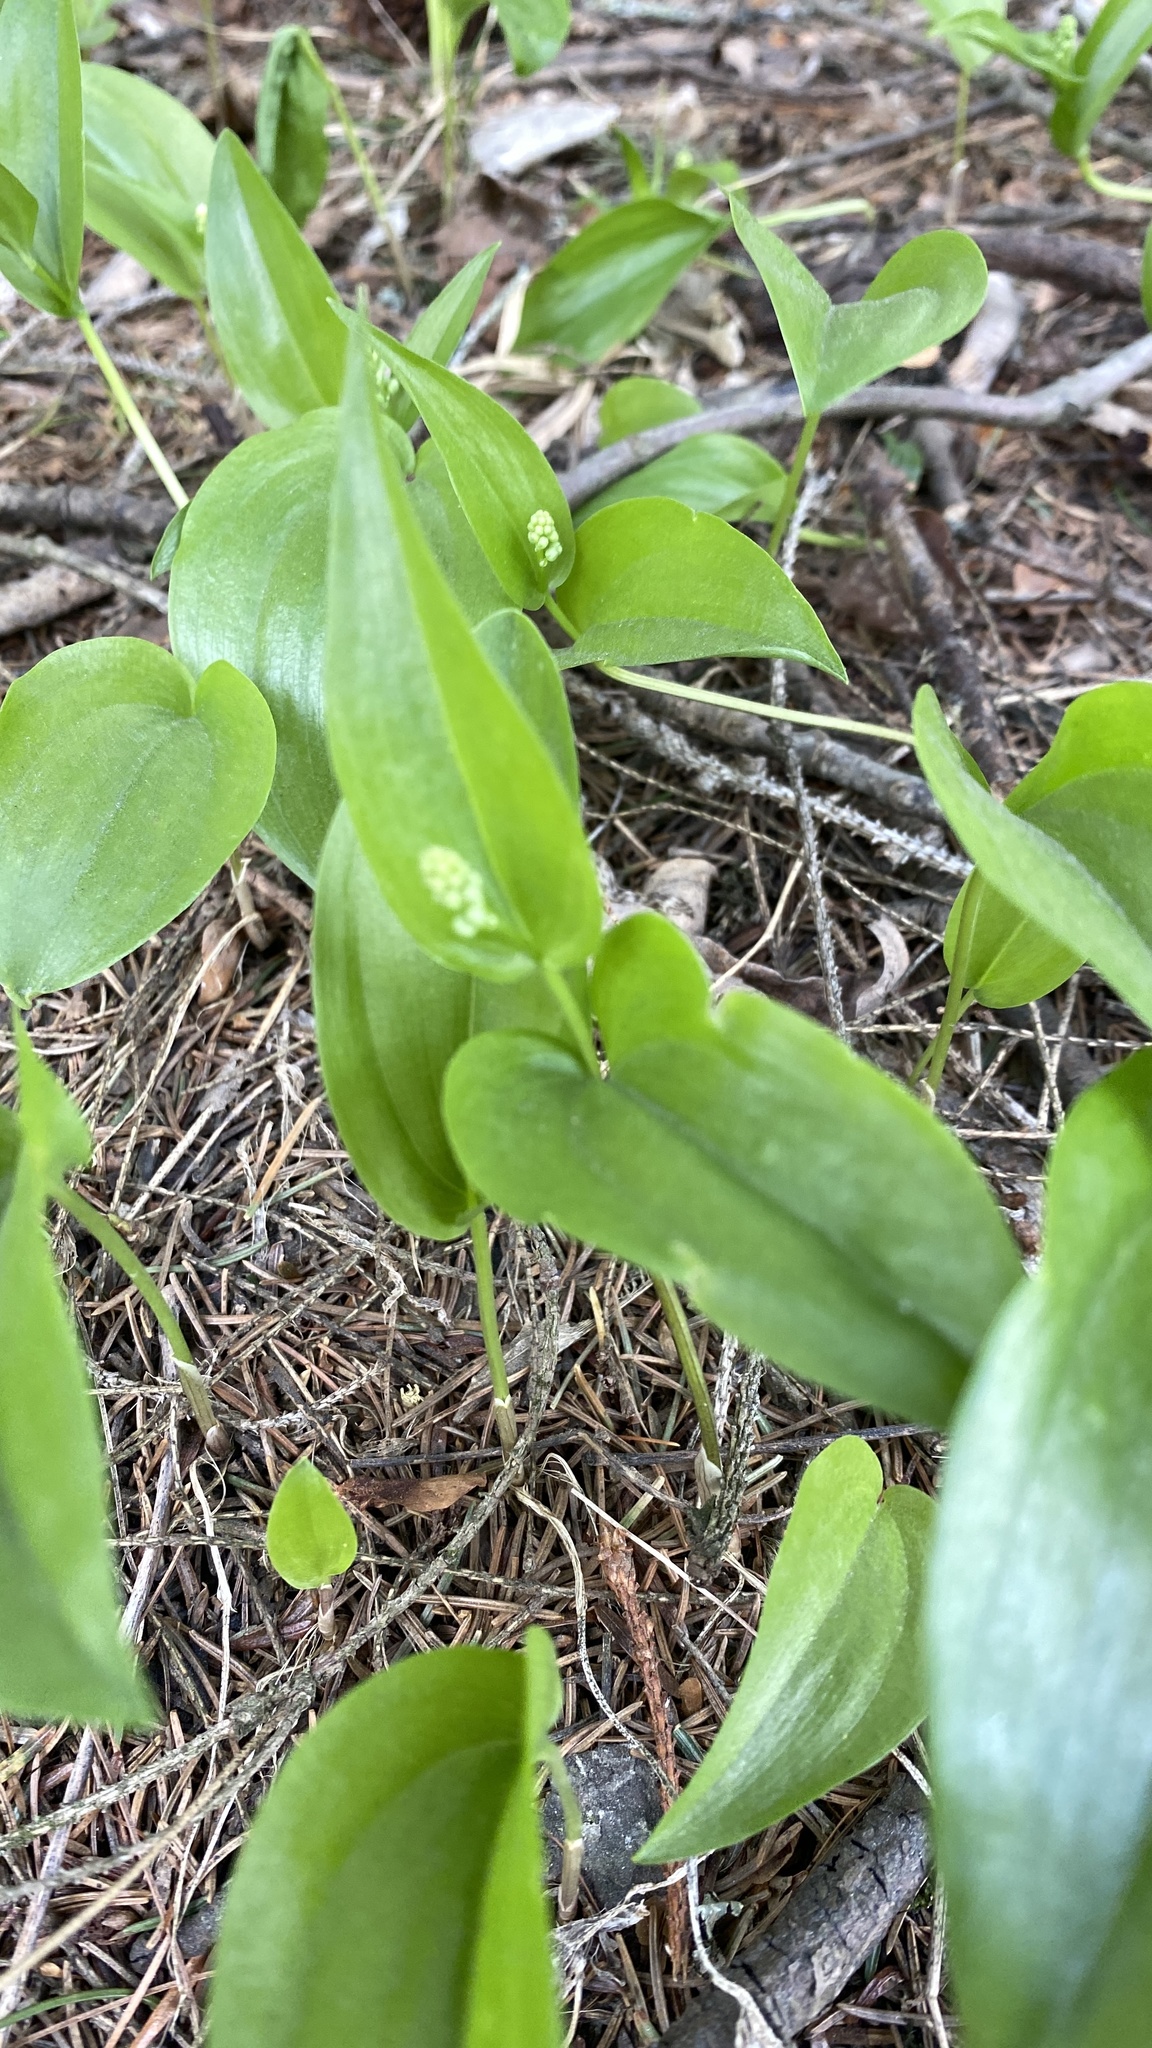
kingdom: Plantae
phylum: Tracheophyta
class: Liliopsida
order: Asparagales
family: Asparagaceae
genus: Maianthemum
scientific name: Maianthemum canadense
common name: False lily-of-the-valley
